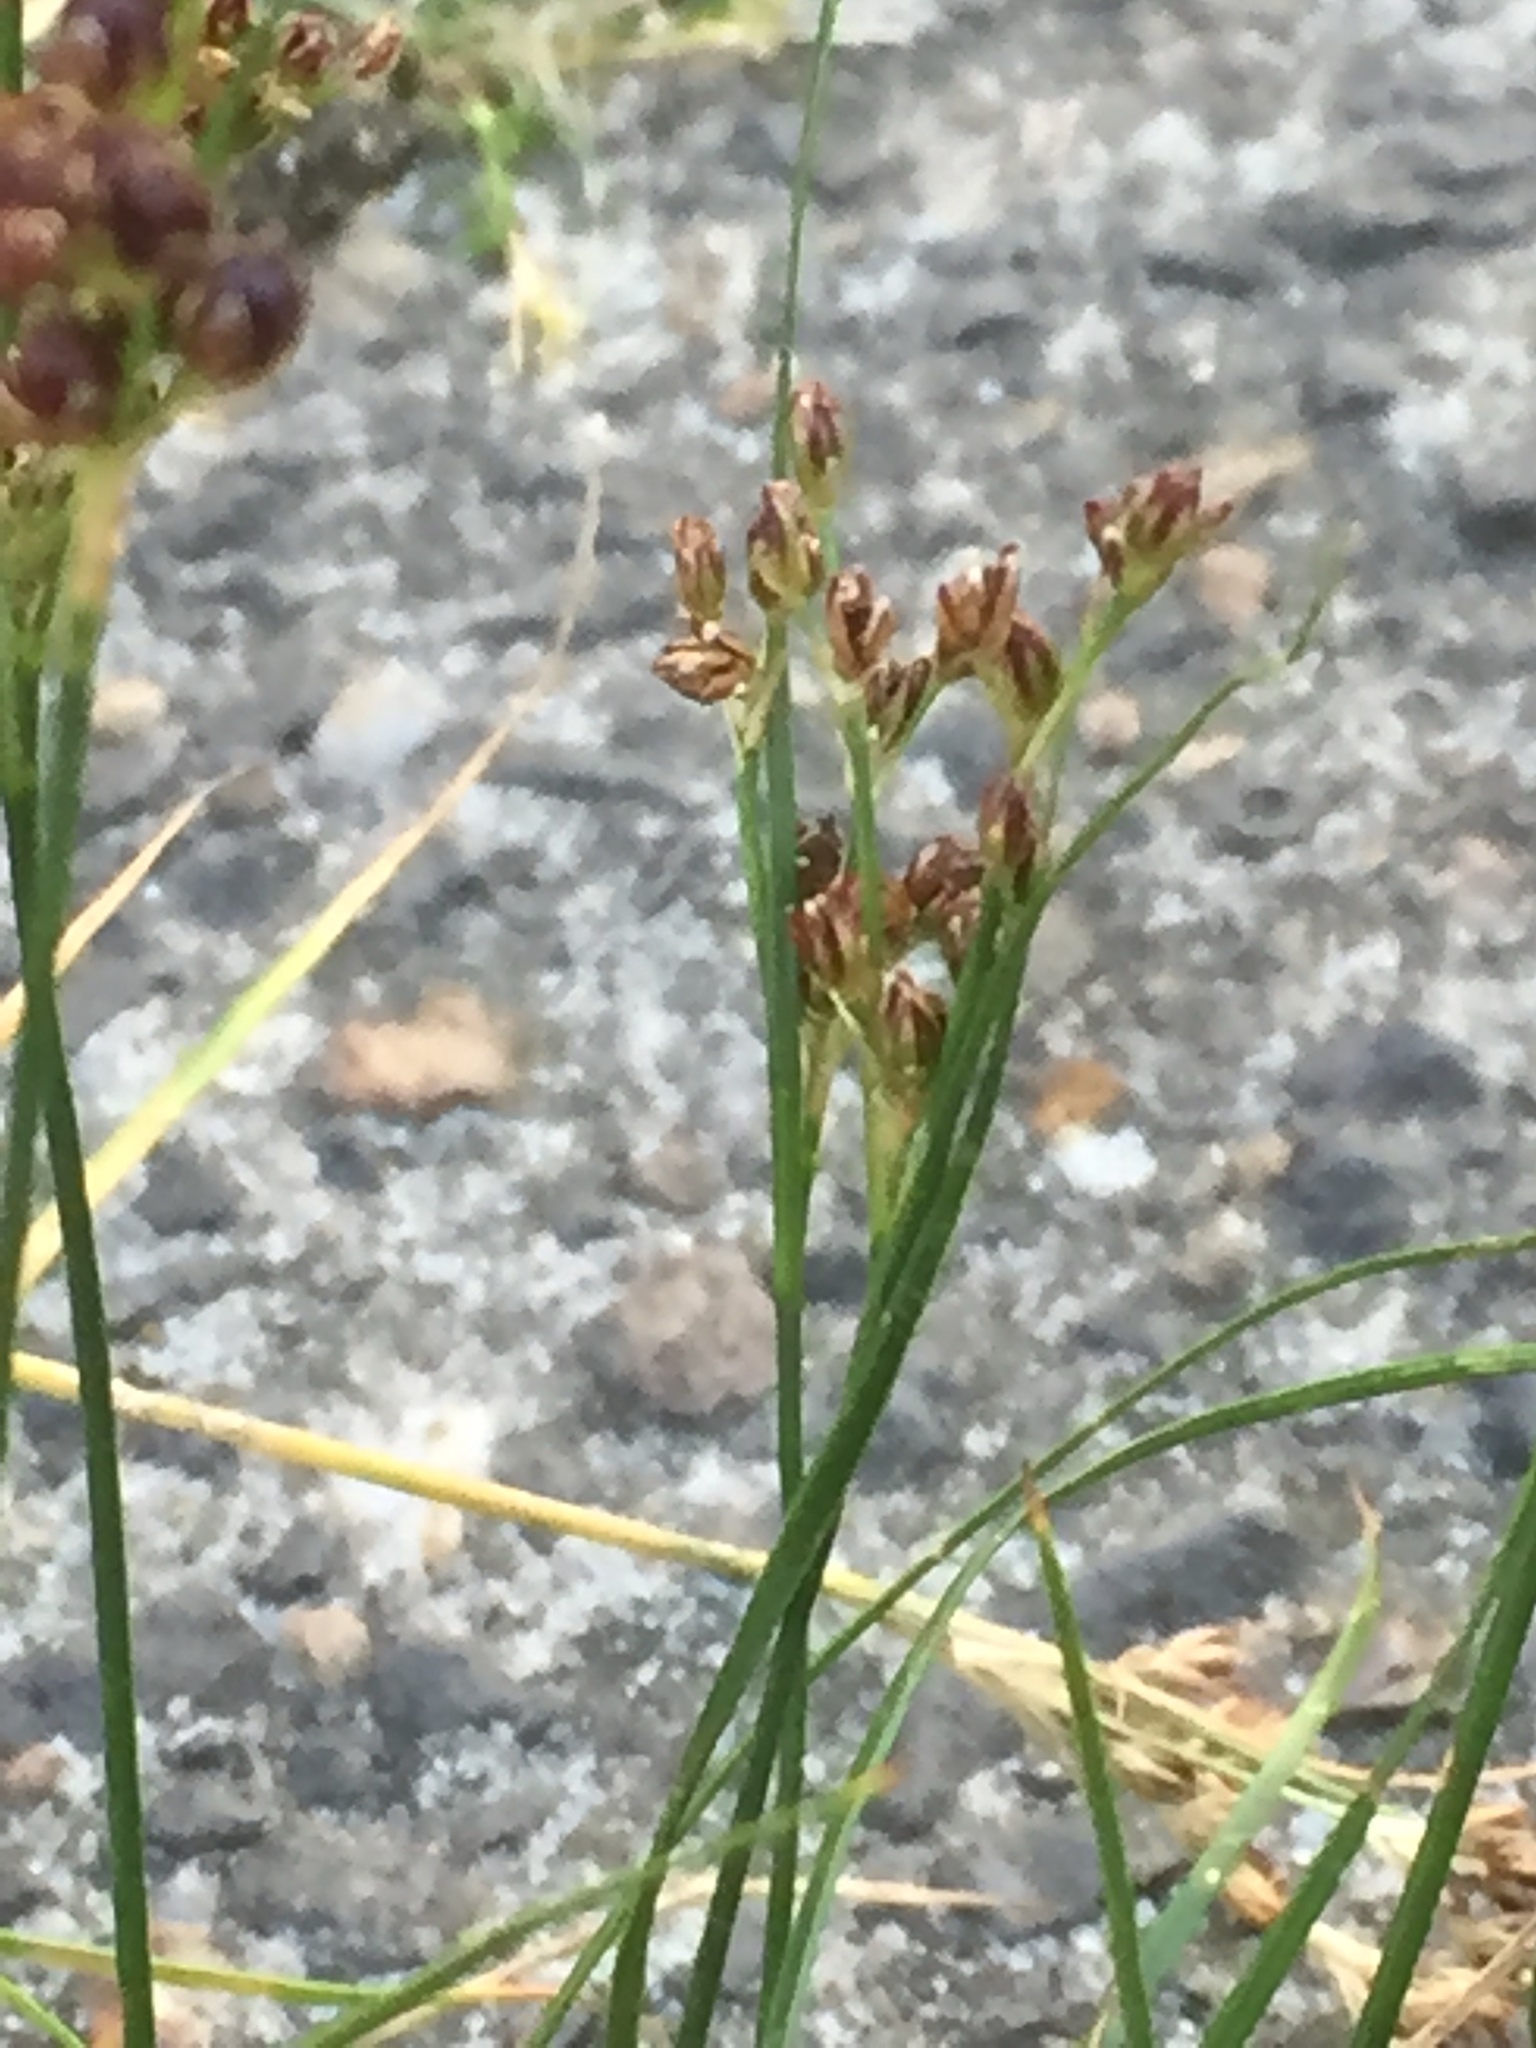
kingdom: Plantae
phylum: Tracheophyta
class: Liliopsida
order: Poales
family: Juncaceae
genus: Juncus
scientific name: Juncus gerardi
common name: Saltmarsh rush
